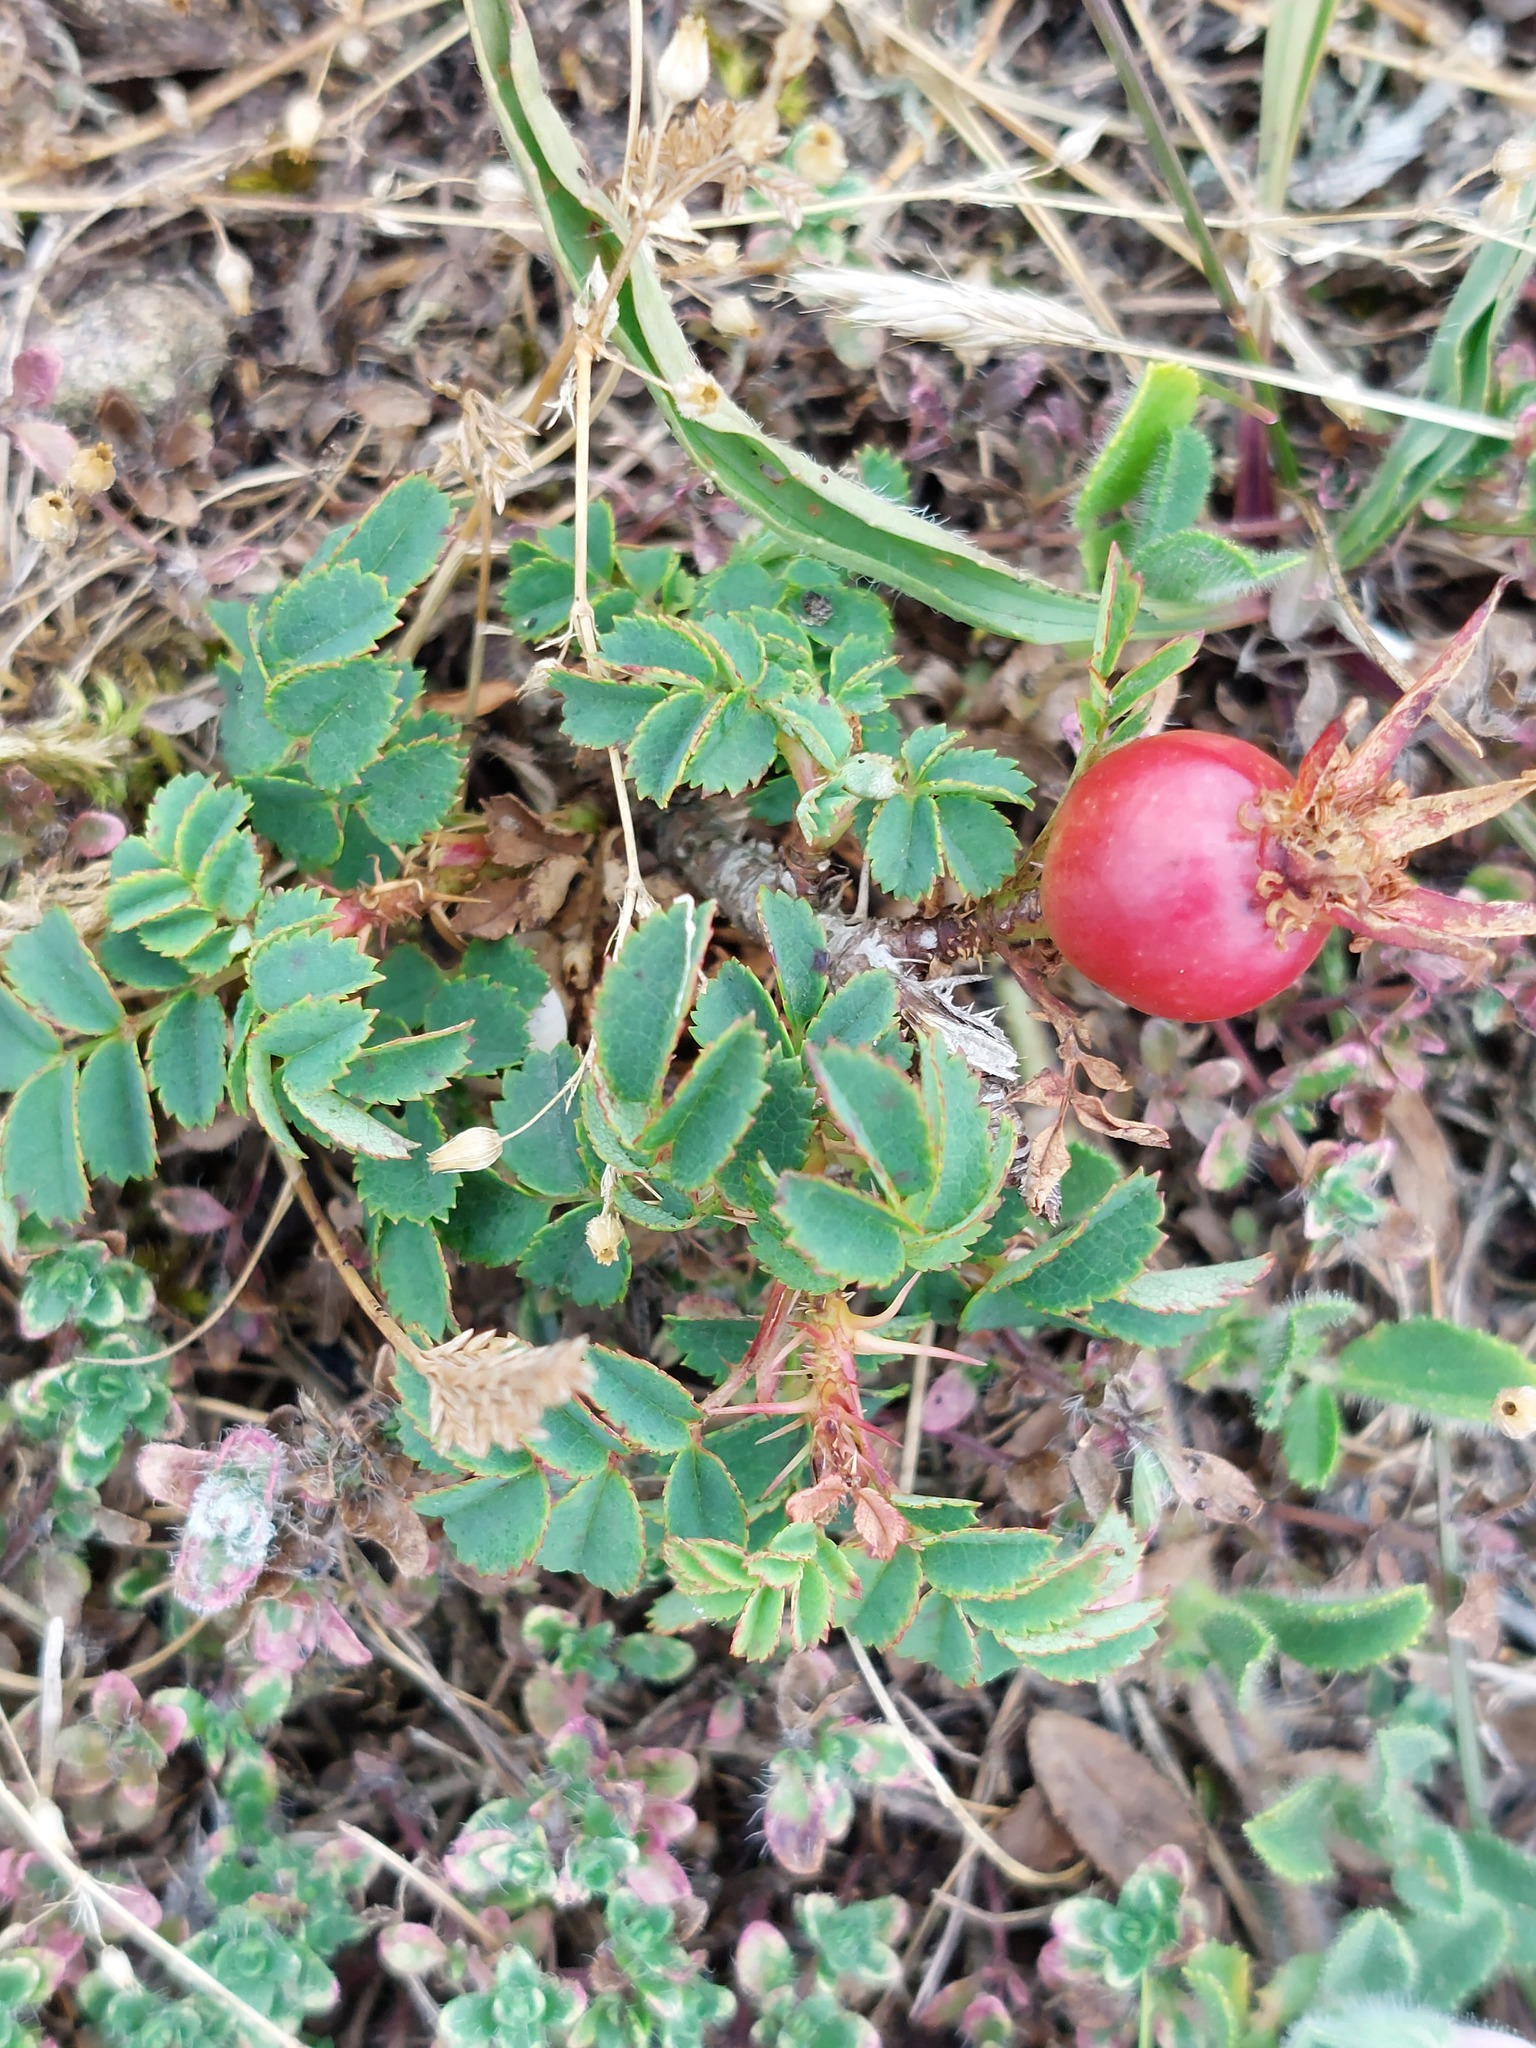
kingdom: Plantae
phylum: Tracheophyta
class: Magnoliopsida
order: Rosales
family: Rosaceae
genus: Rosa
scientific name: Rosa spinosissima
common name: Burnet rose
